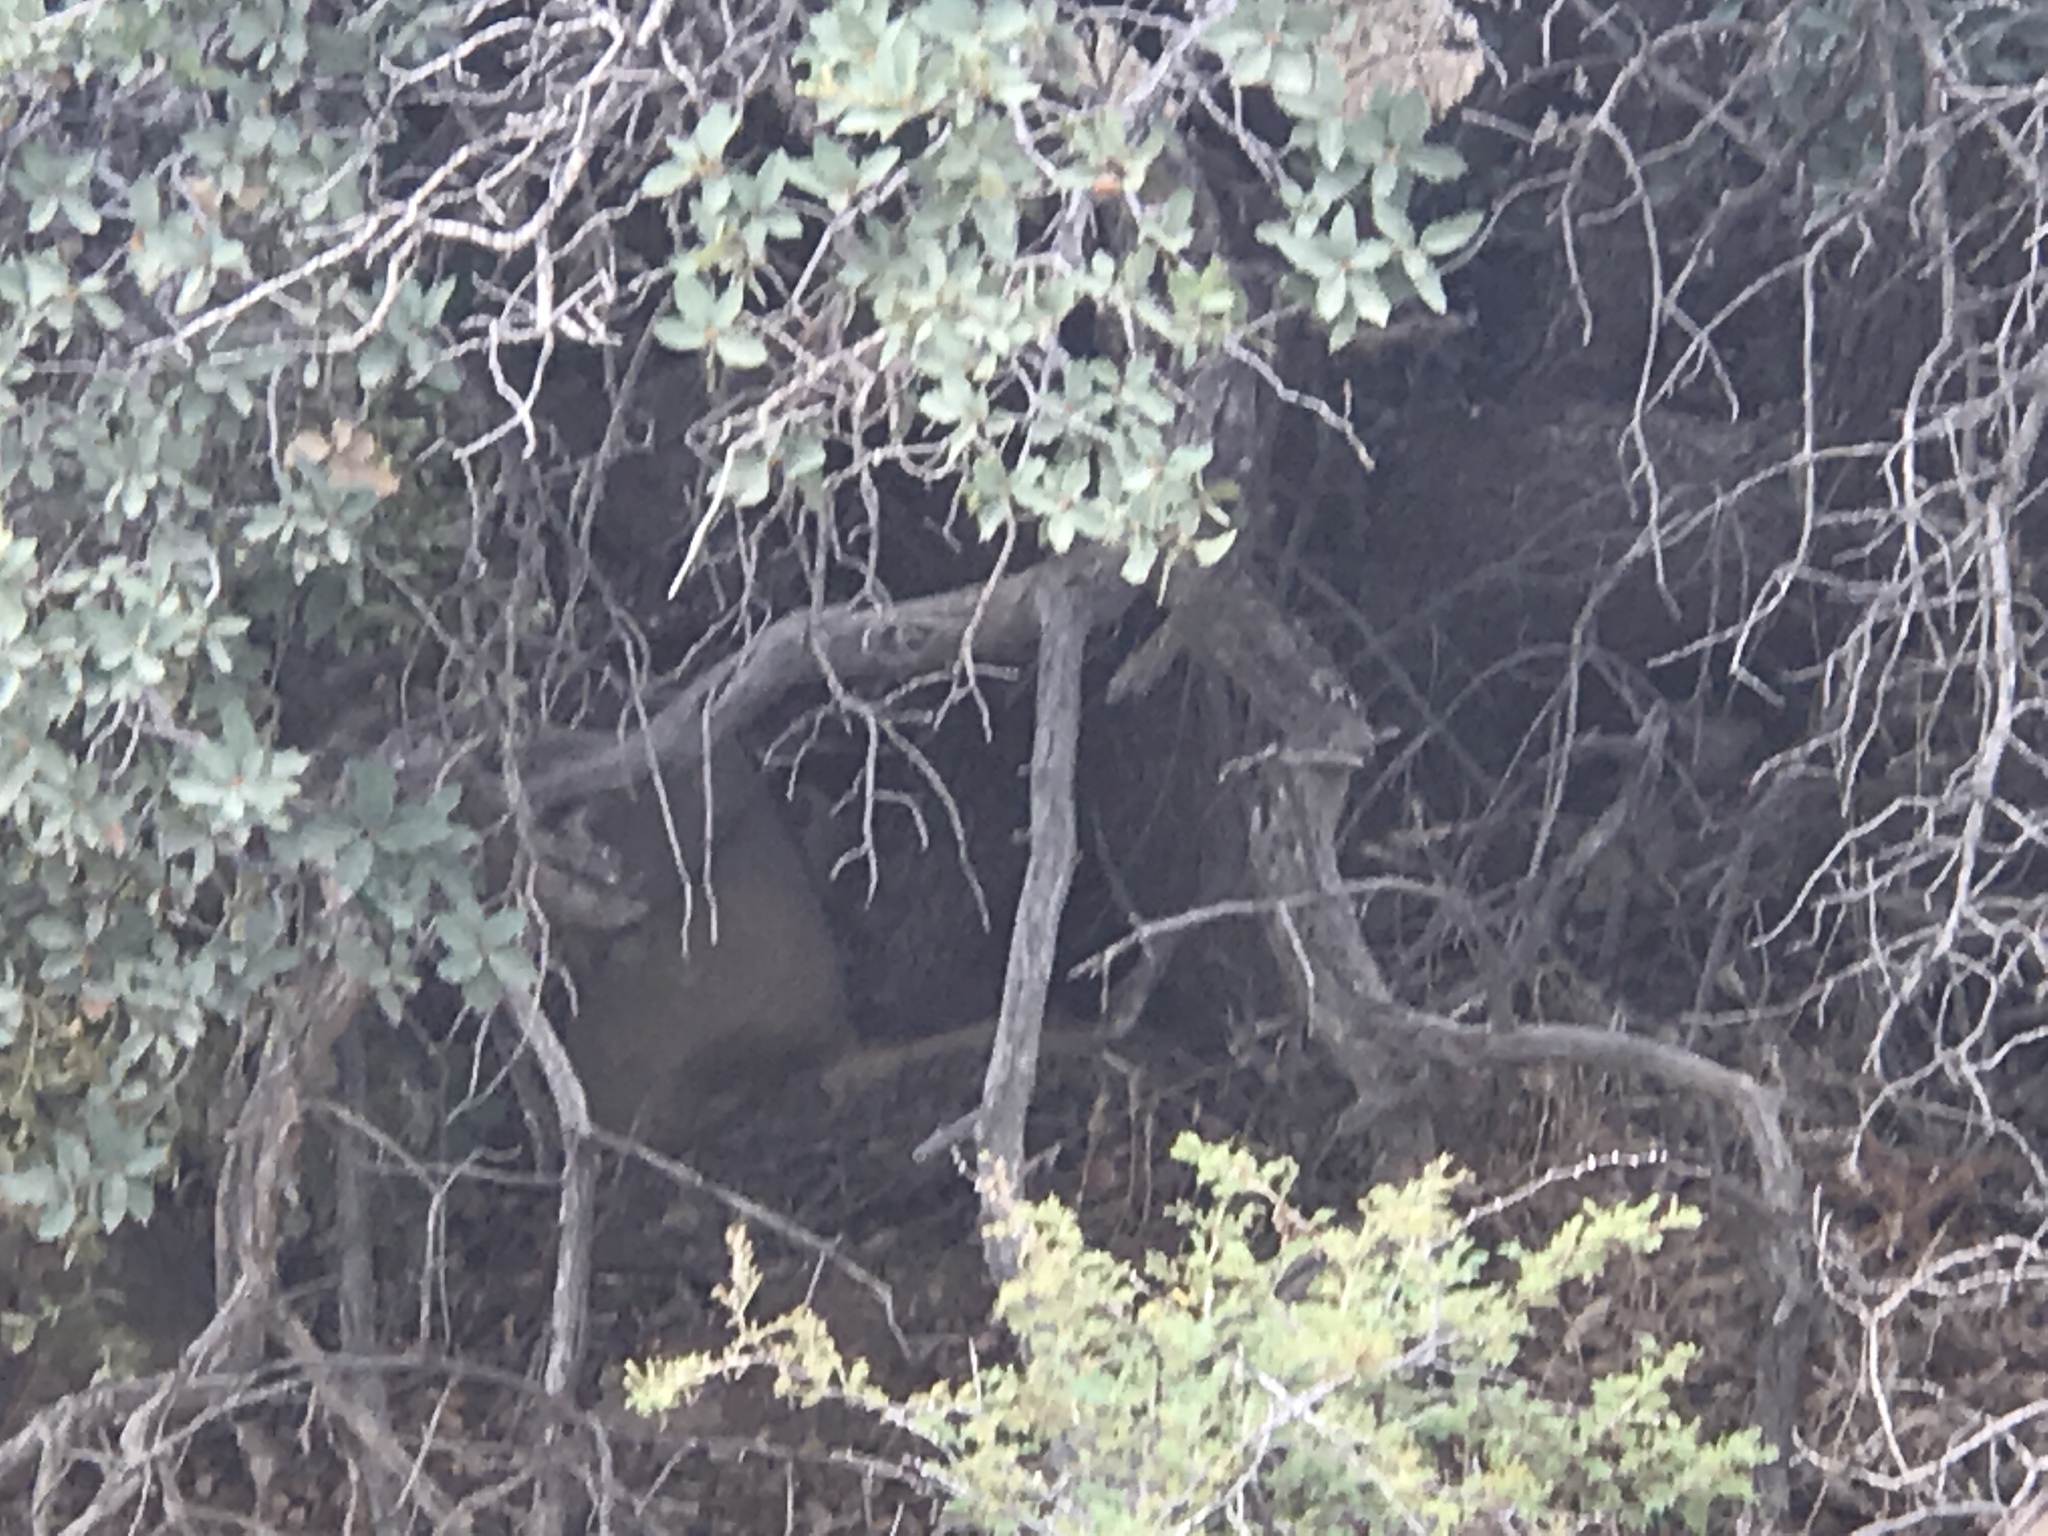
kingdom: Animalia
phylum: Chordata
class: Mammalia
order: Carnivora
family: Felidae
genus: Lynx
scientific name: Lynx rufus
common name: Bobcat
